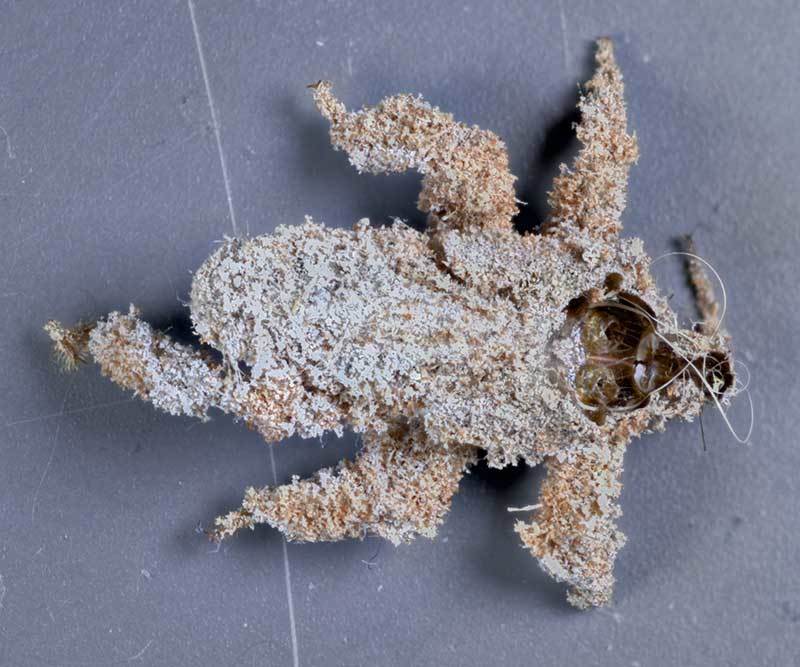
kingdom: Animalia
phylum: Arthropoda
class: Insecta
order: Hemiptera
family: Reduviidae
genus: Reduvius
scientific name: Reduvius personatus
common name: Masked hunter
